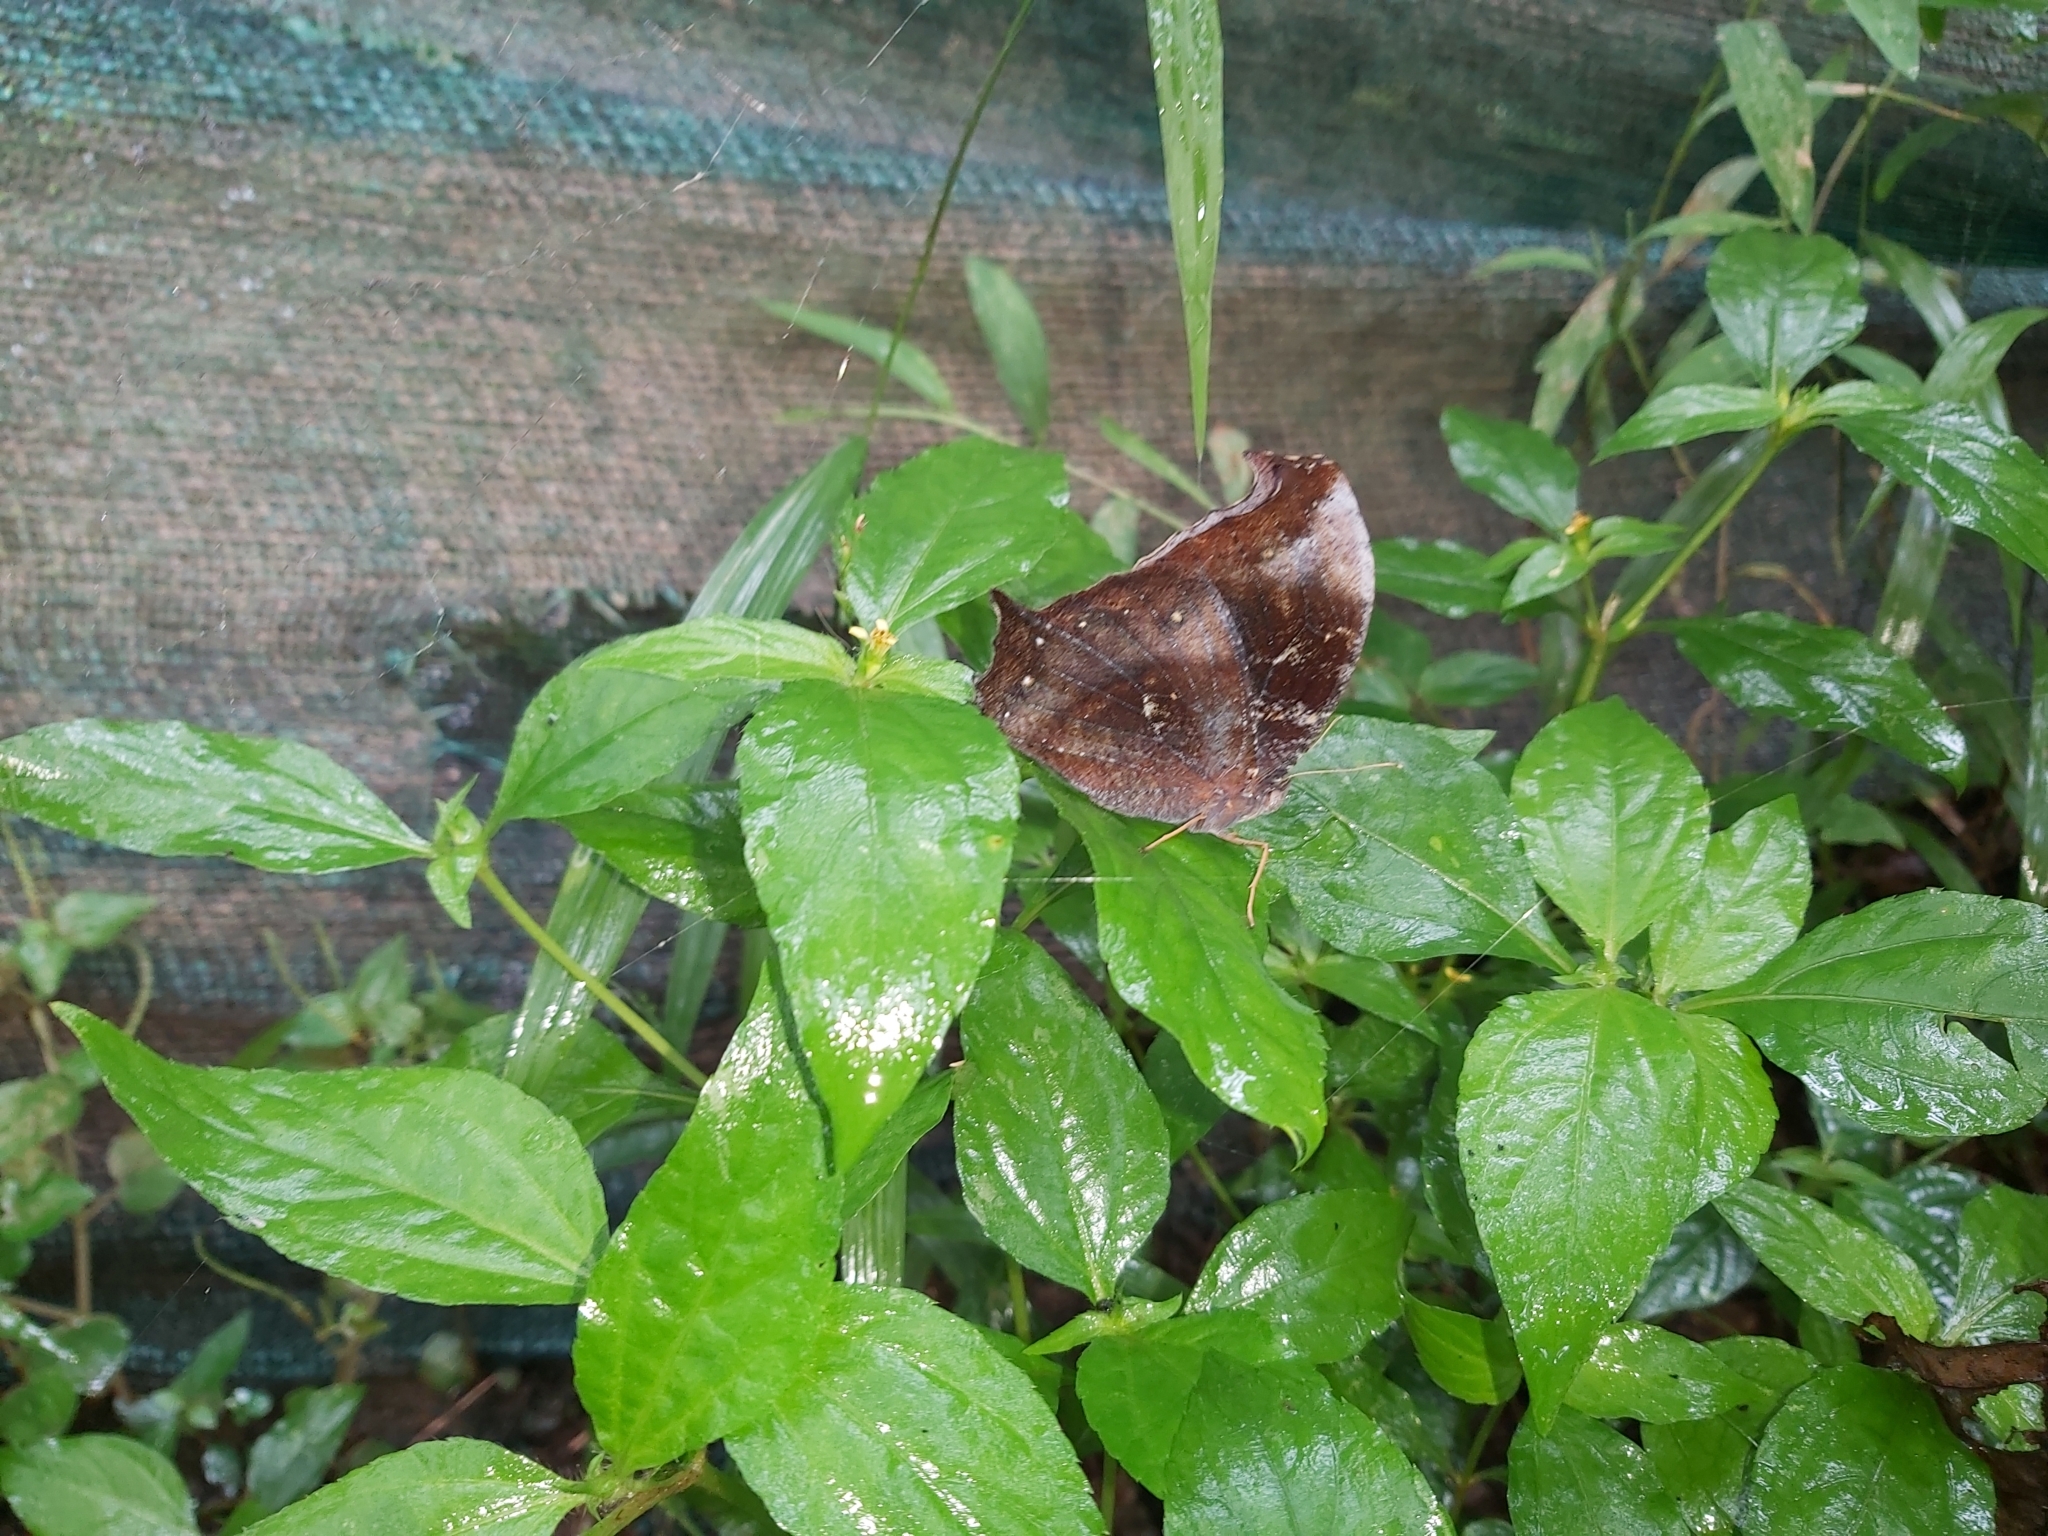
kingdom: Animalia
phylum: Arthropoda
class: Insecta
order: Lepidoptera
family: Nymphalidae
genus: Melanitis
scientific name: Melanitis phedima
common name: Dark evening brown
